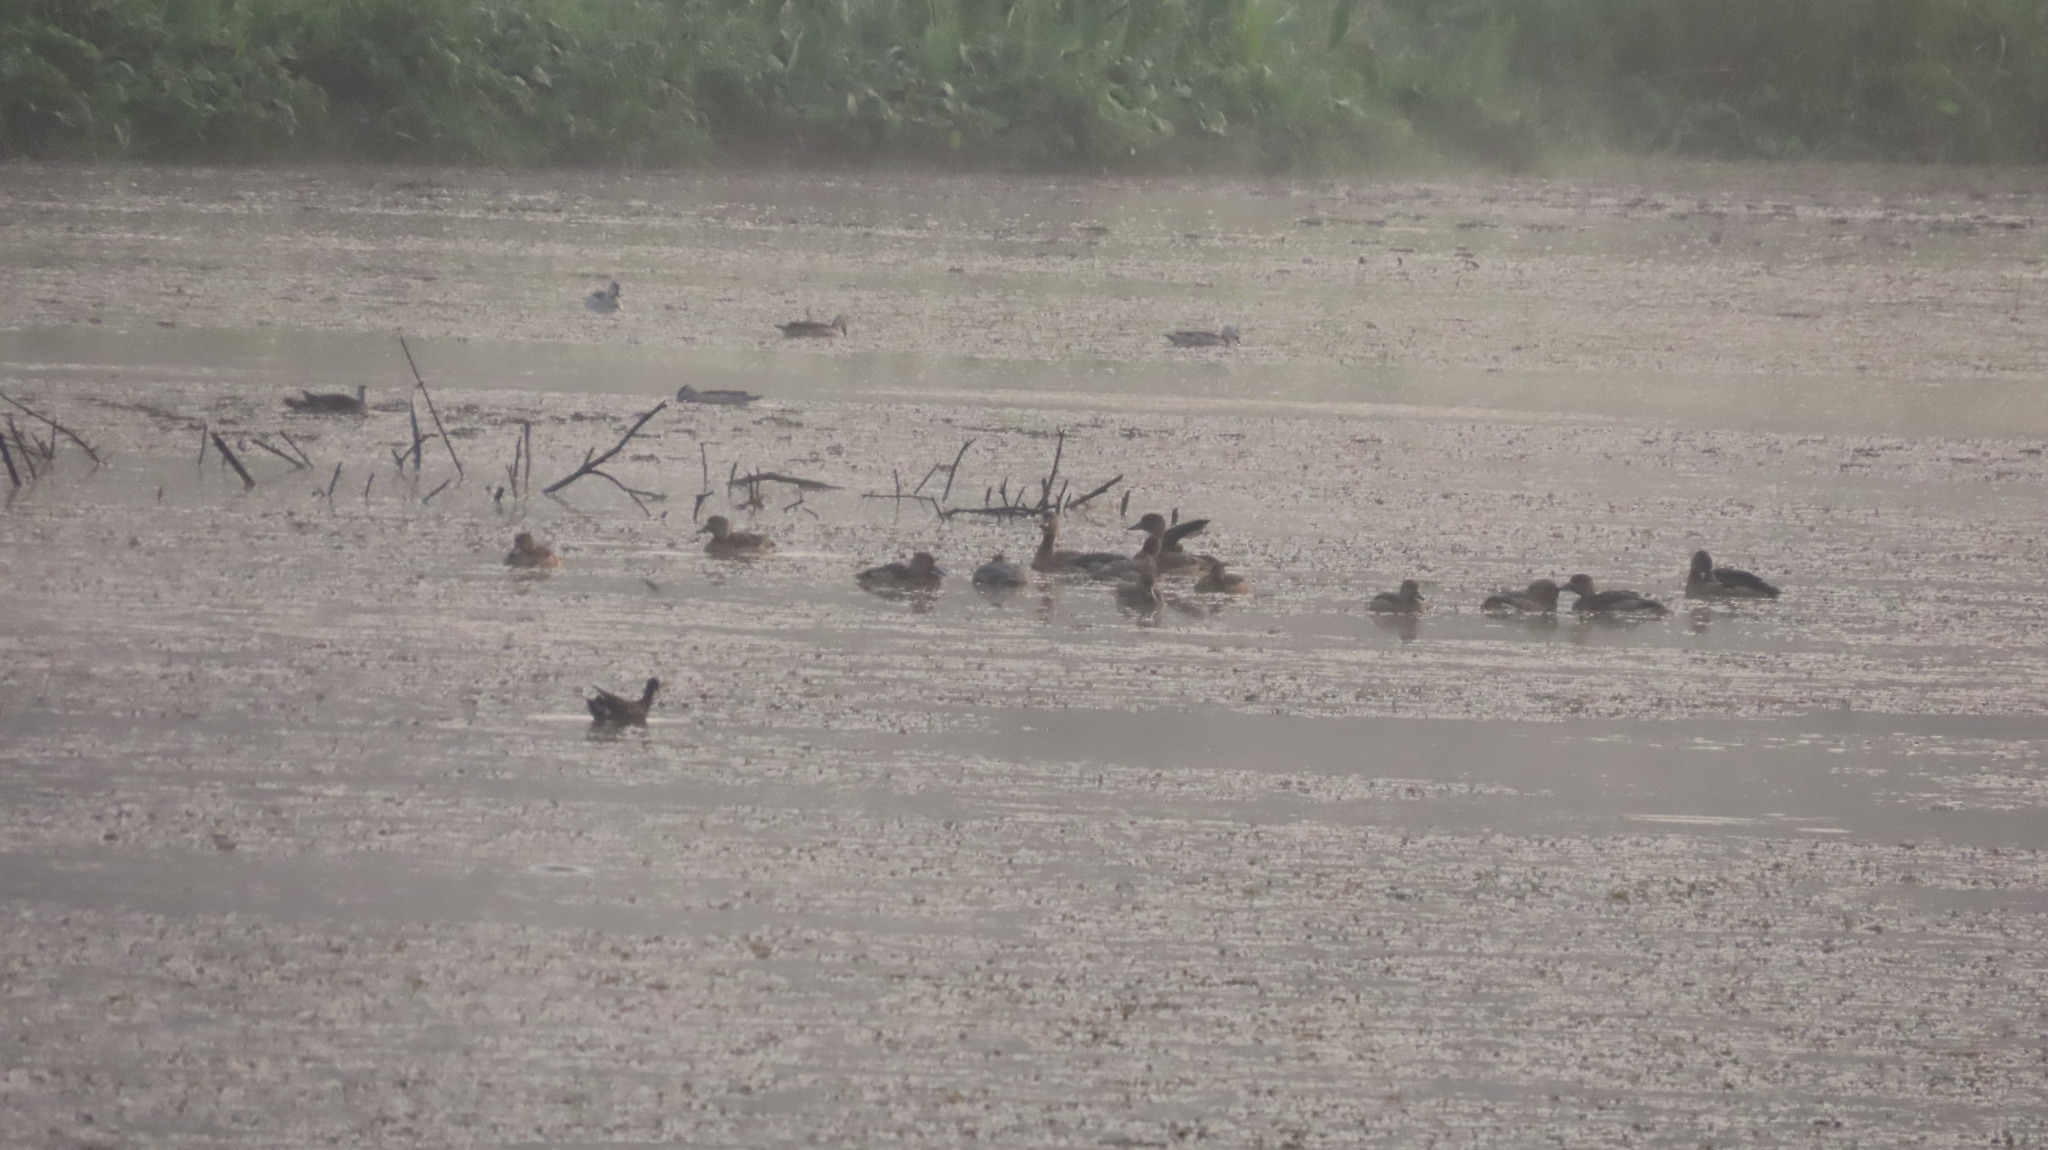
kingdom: Animalia
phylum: Chordata
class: Aves
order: Anseriformes
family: Anatidae
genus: Dendrocygna
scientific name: Dendrocygna javanica
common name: Lesser whistling-duck
